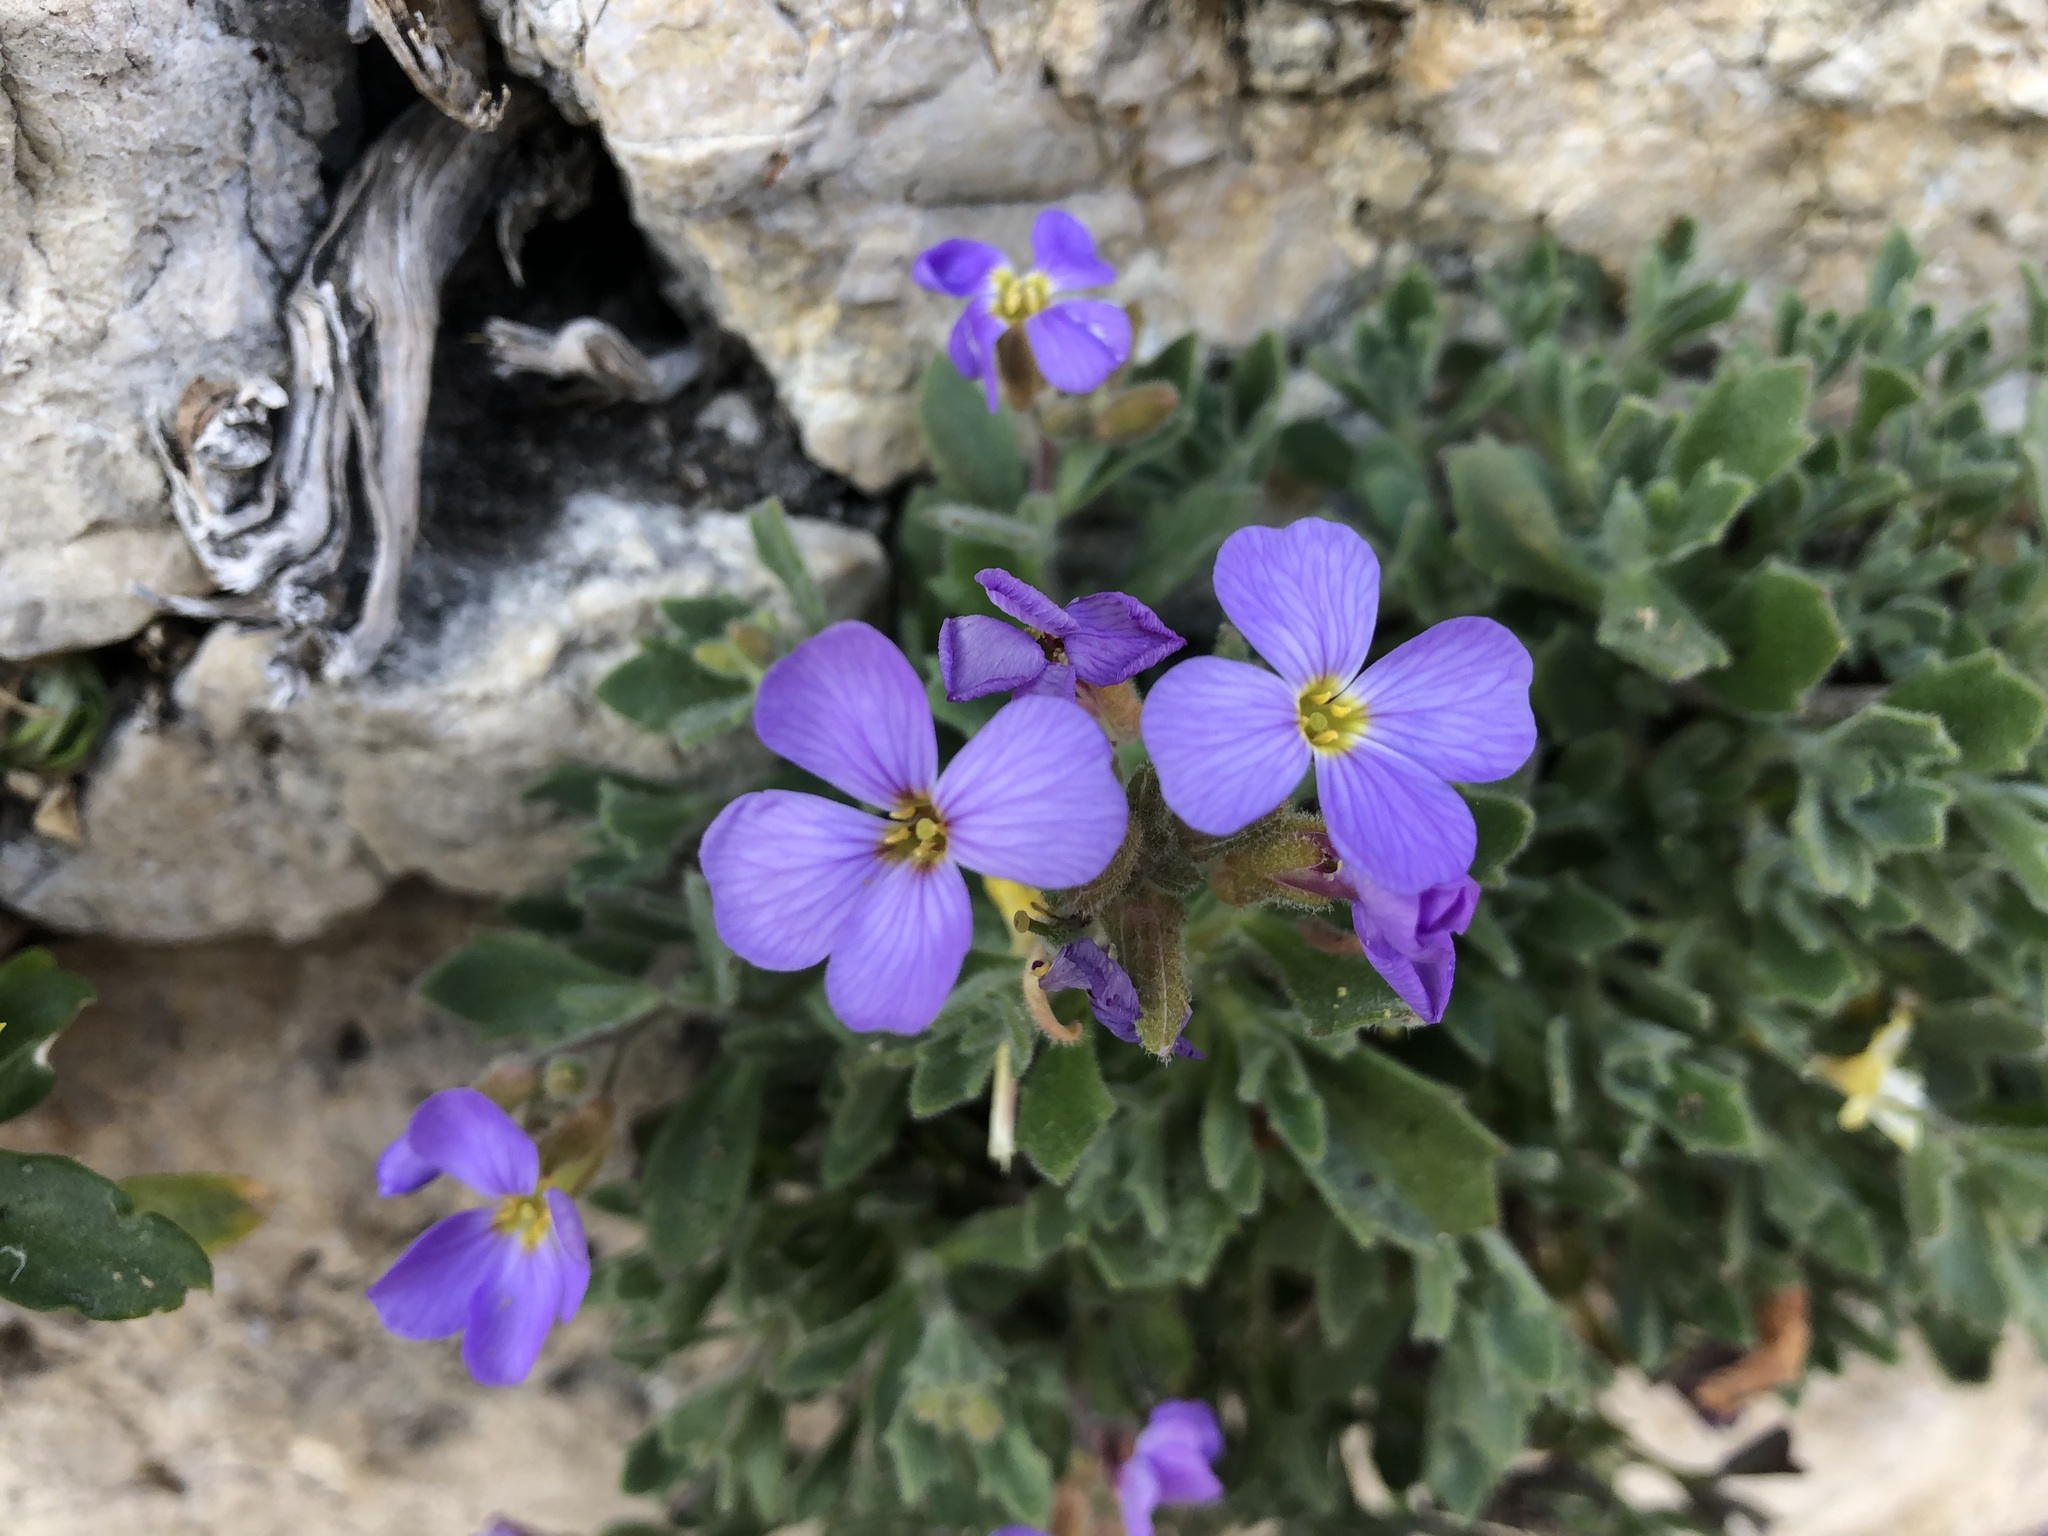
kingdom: Plantae
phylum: Tracheophyta
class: Magnoliopsida
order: Brassicales
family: Brassicaceae
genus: Aubrieta
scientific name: Aubrieta deltoidea
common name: Aubretia
